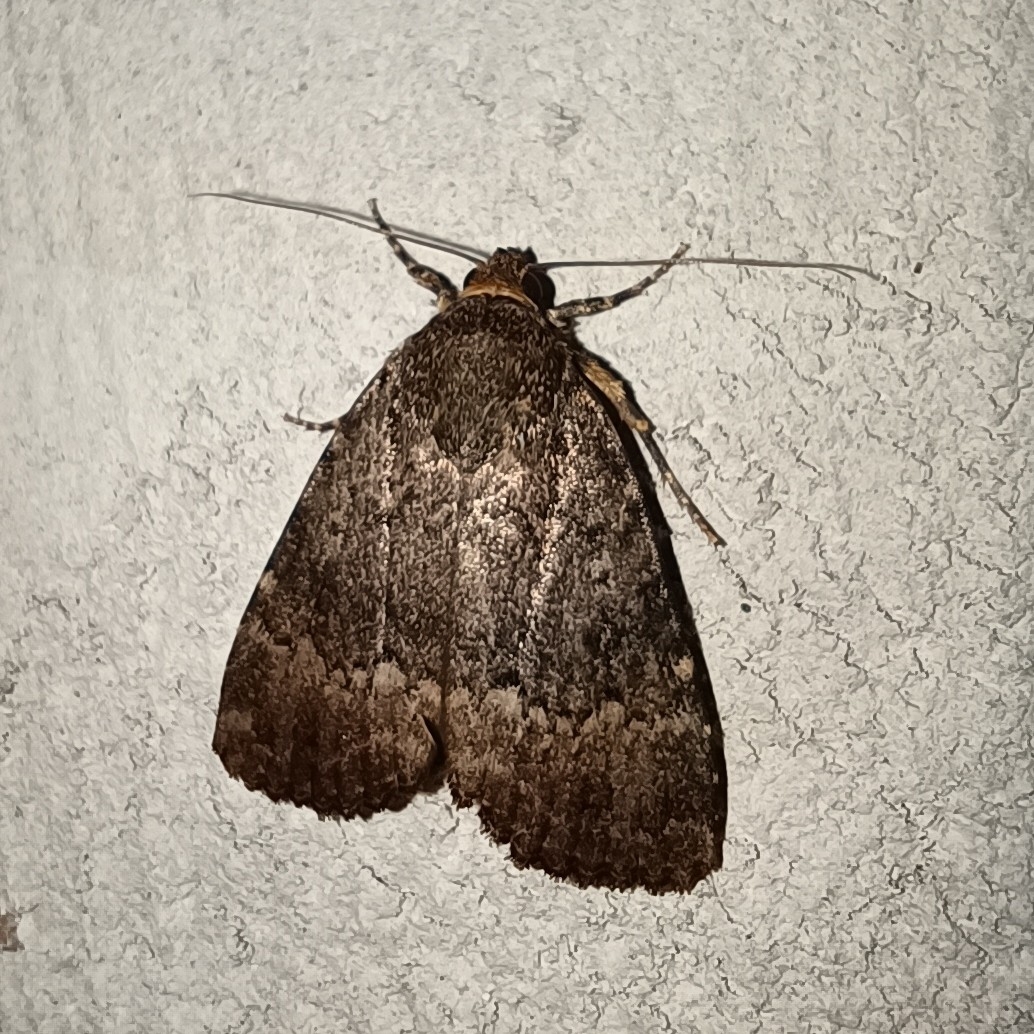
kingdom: Animalia
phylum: Arthropoda
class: Insecta
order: Lepidoptera
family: Noctuidae
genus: Amphipyra
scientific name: Amphipyra pyramidea
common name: Copper underwing
